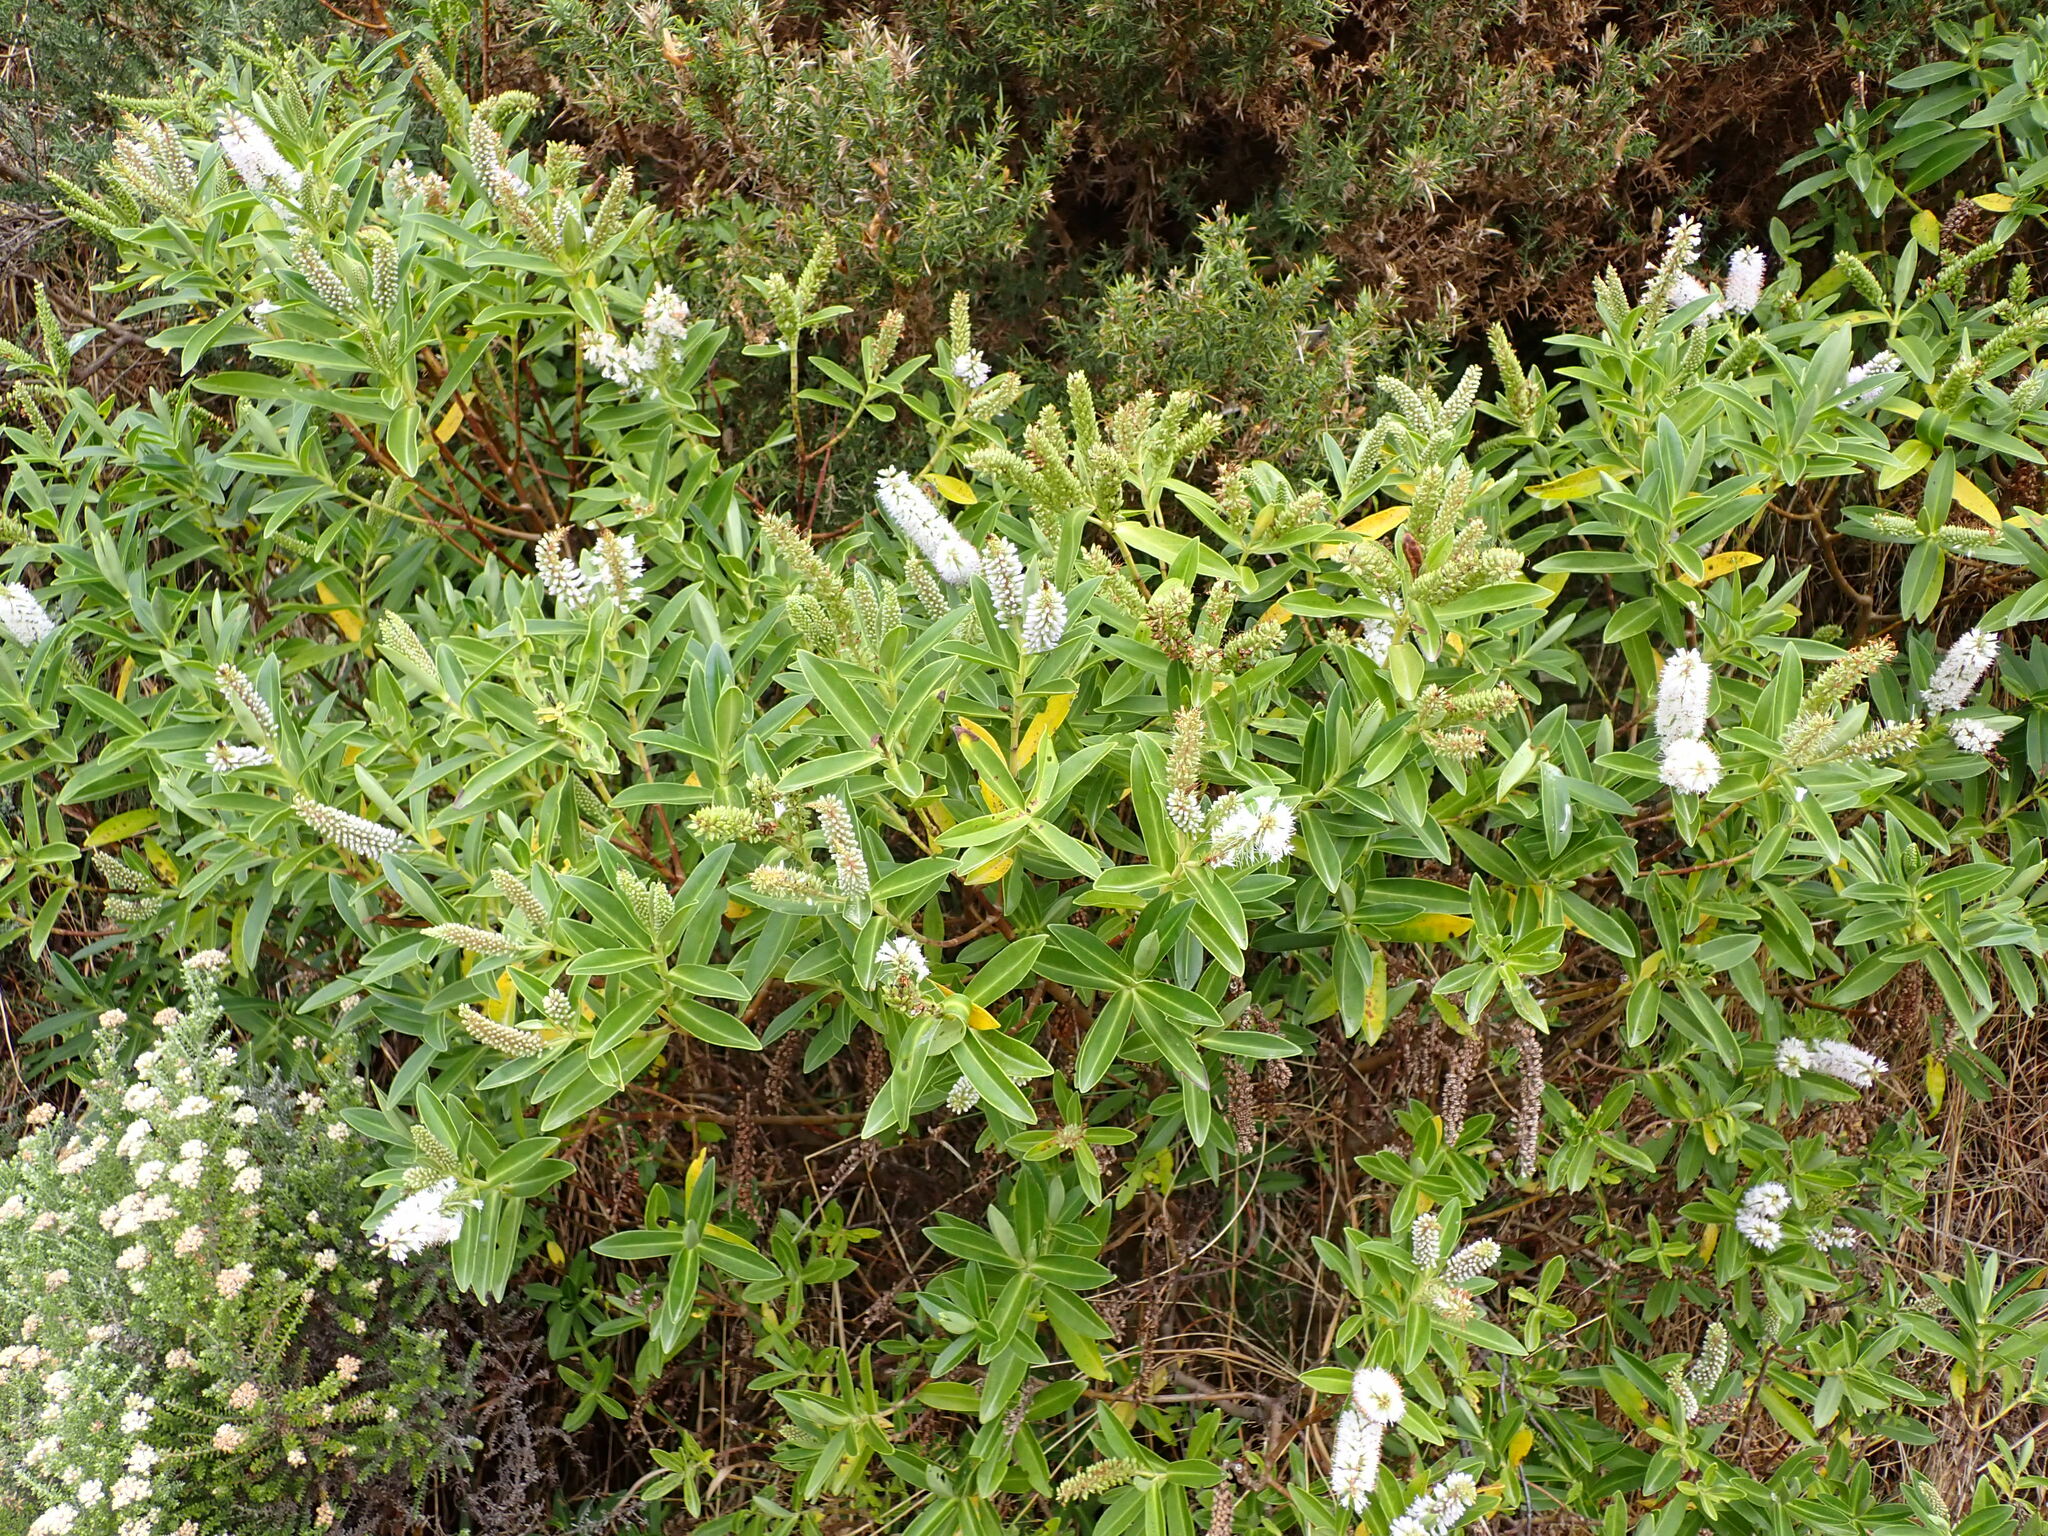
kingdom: Plantae
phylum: Tracheophyta
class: Magnoliopsida
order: Lamiales
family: Plantaginaceae
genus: Veronica
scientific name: Veronica stricta
